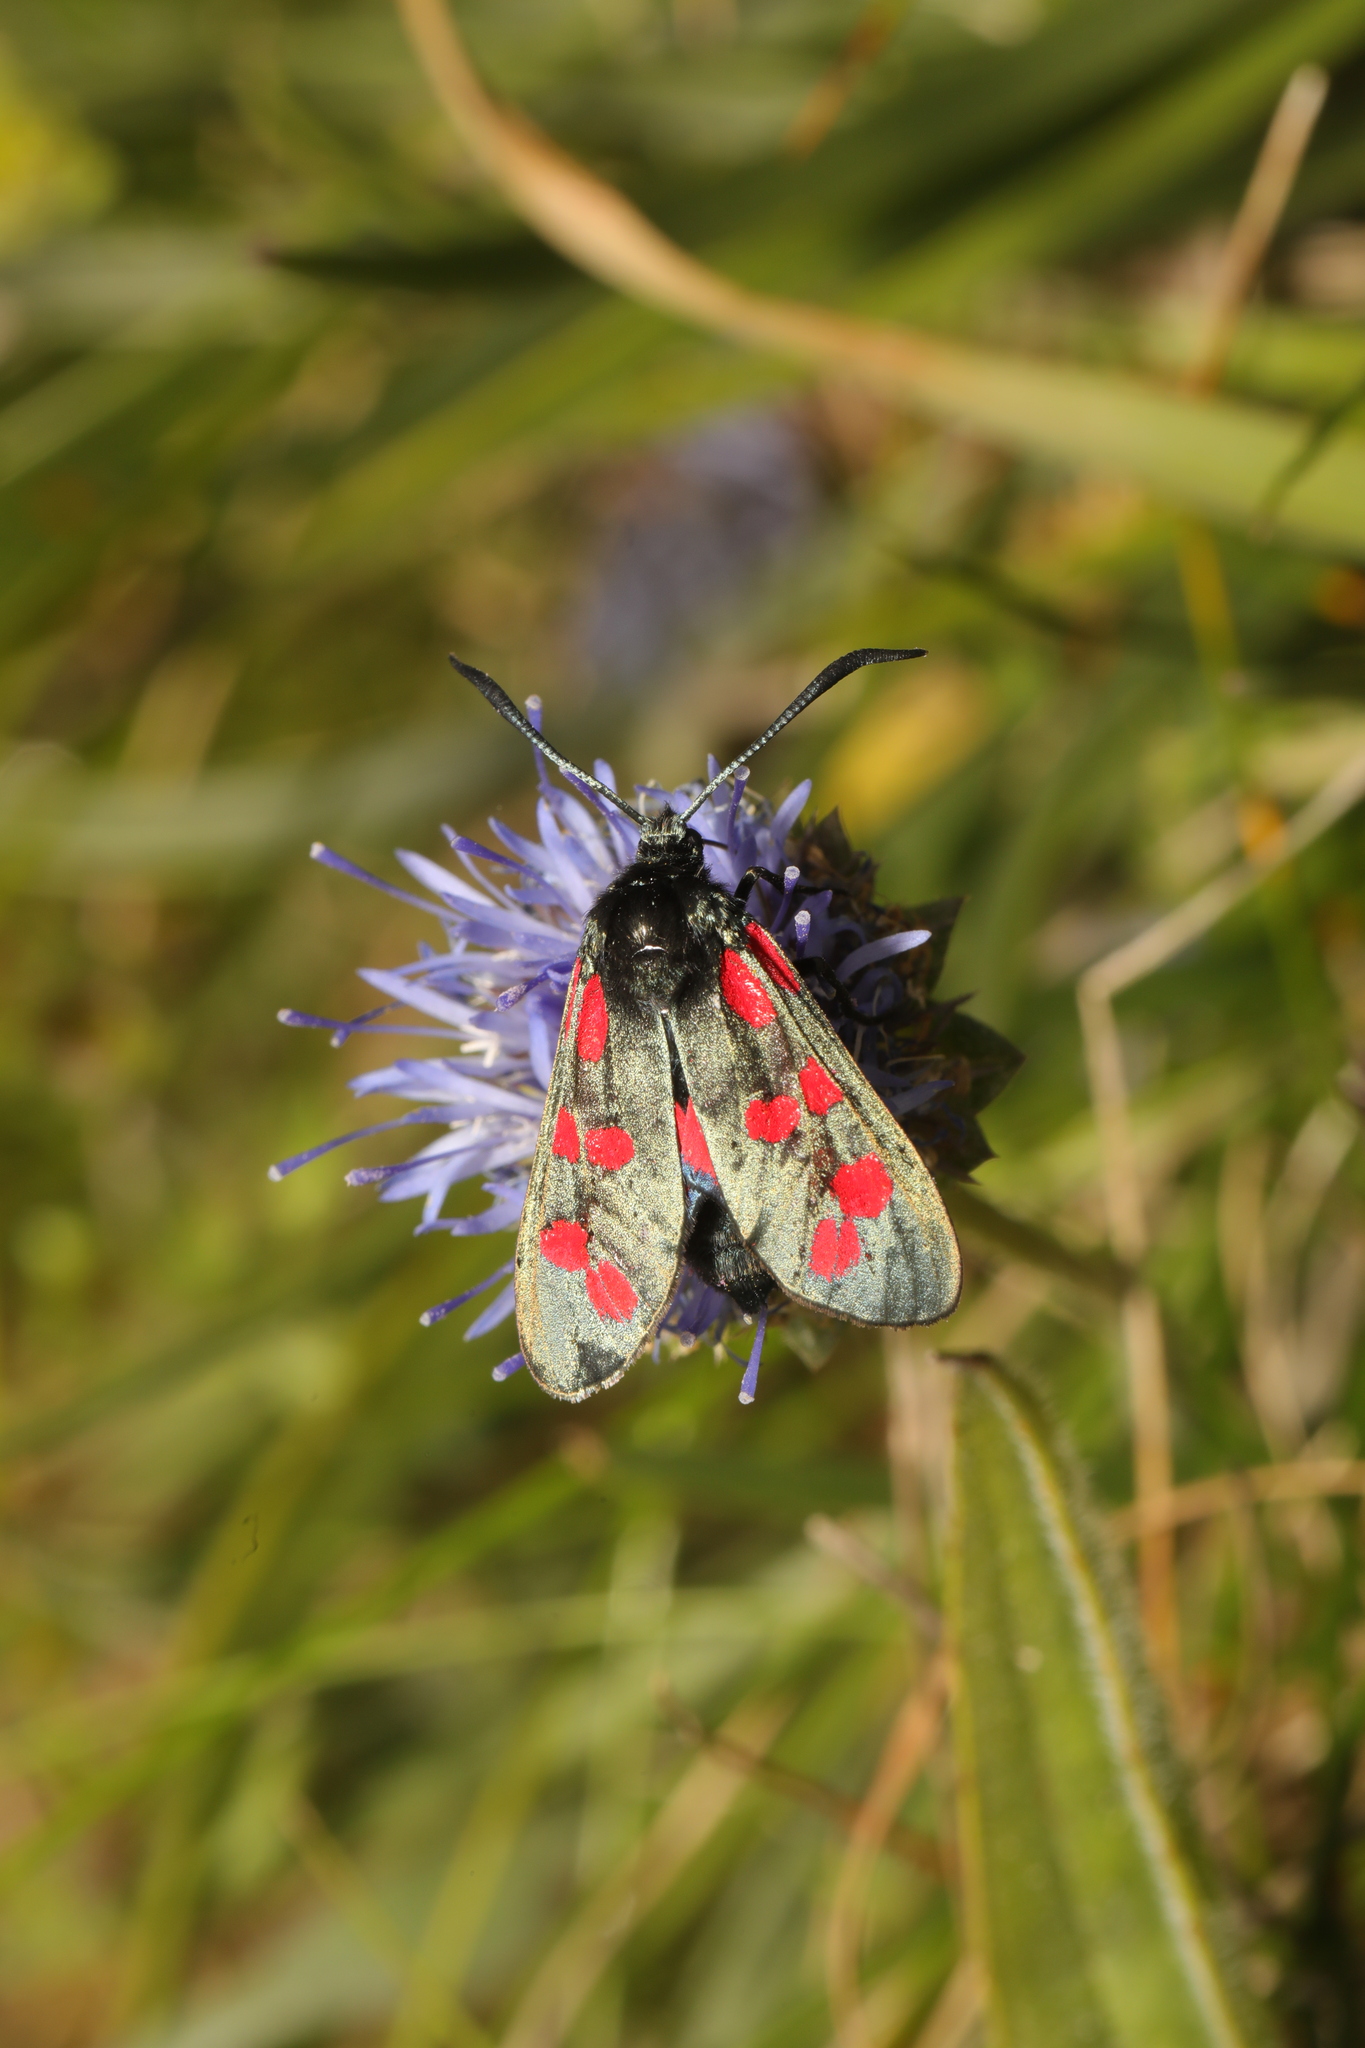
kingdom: Animalia
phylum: Arthropoda
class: Insecta
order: Lepidoptera
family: Zygaenidae
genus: Zygaena
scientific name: Zygaena filipendulae
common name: Six-spot burnet
